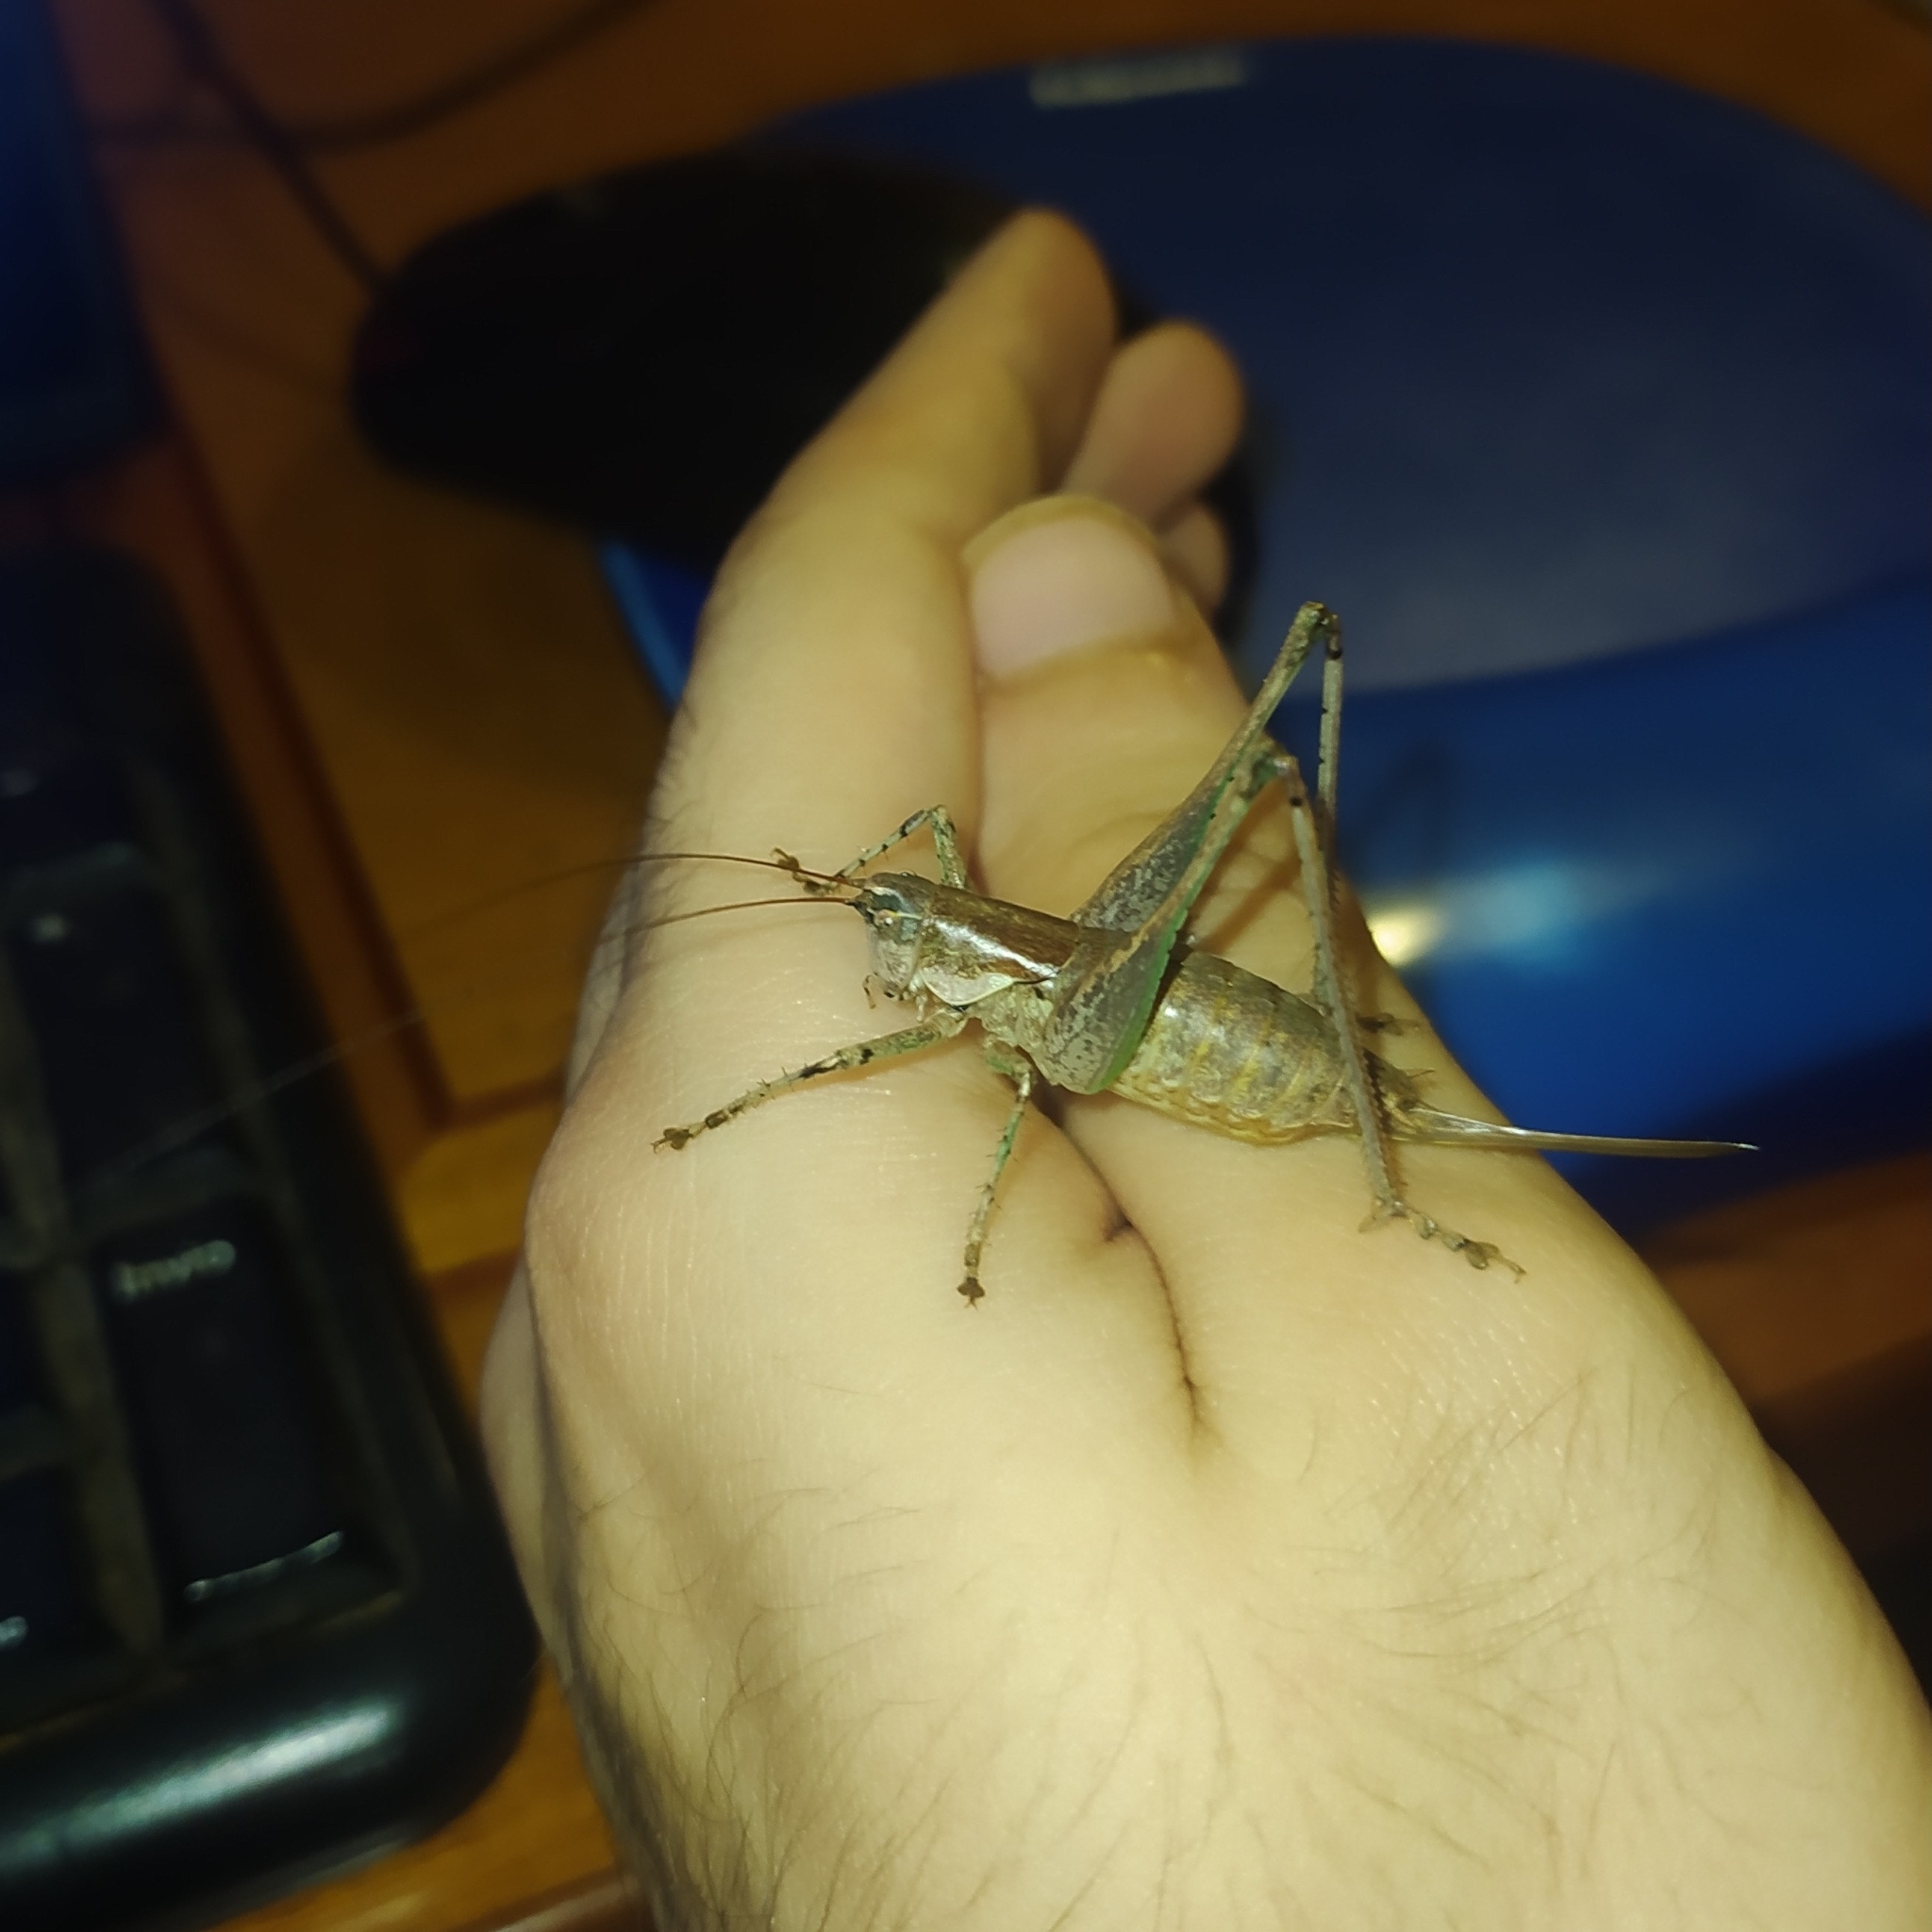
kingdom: Animalia
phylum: Arthropoda
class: Insecta
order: Orthoptera
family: Tettigoniidae
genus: Rhacocleis
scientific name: Rhacocleis annulata
